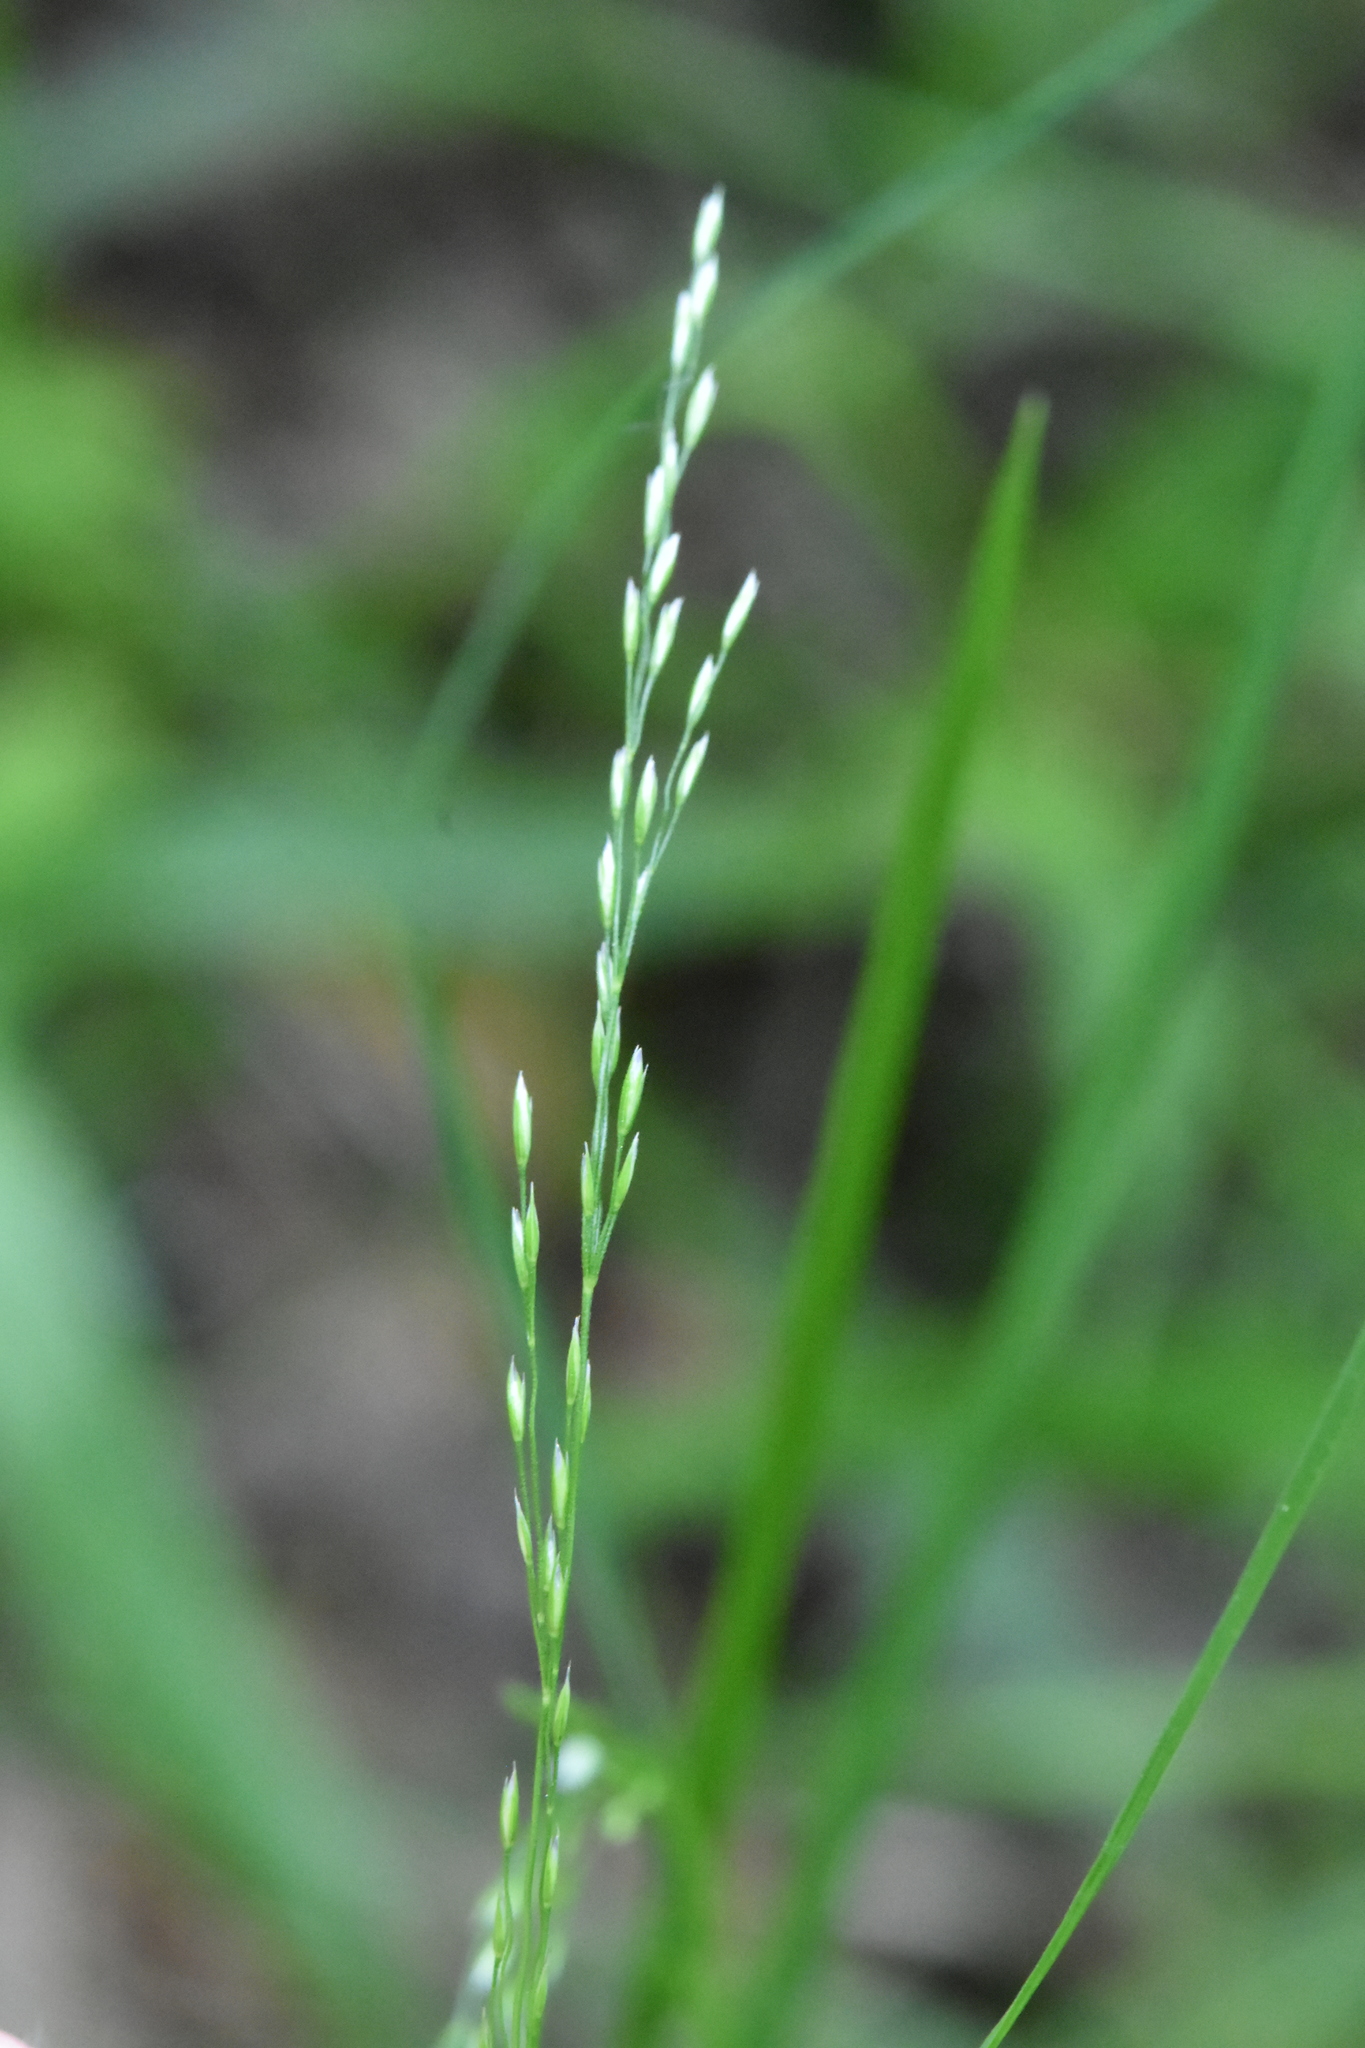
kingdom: Plantae
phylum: Tracheophyta
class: Liliopsida
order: Poales
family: Poaceae
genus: Poa
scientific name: Poa nemoralis
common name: Wood bluegrass
